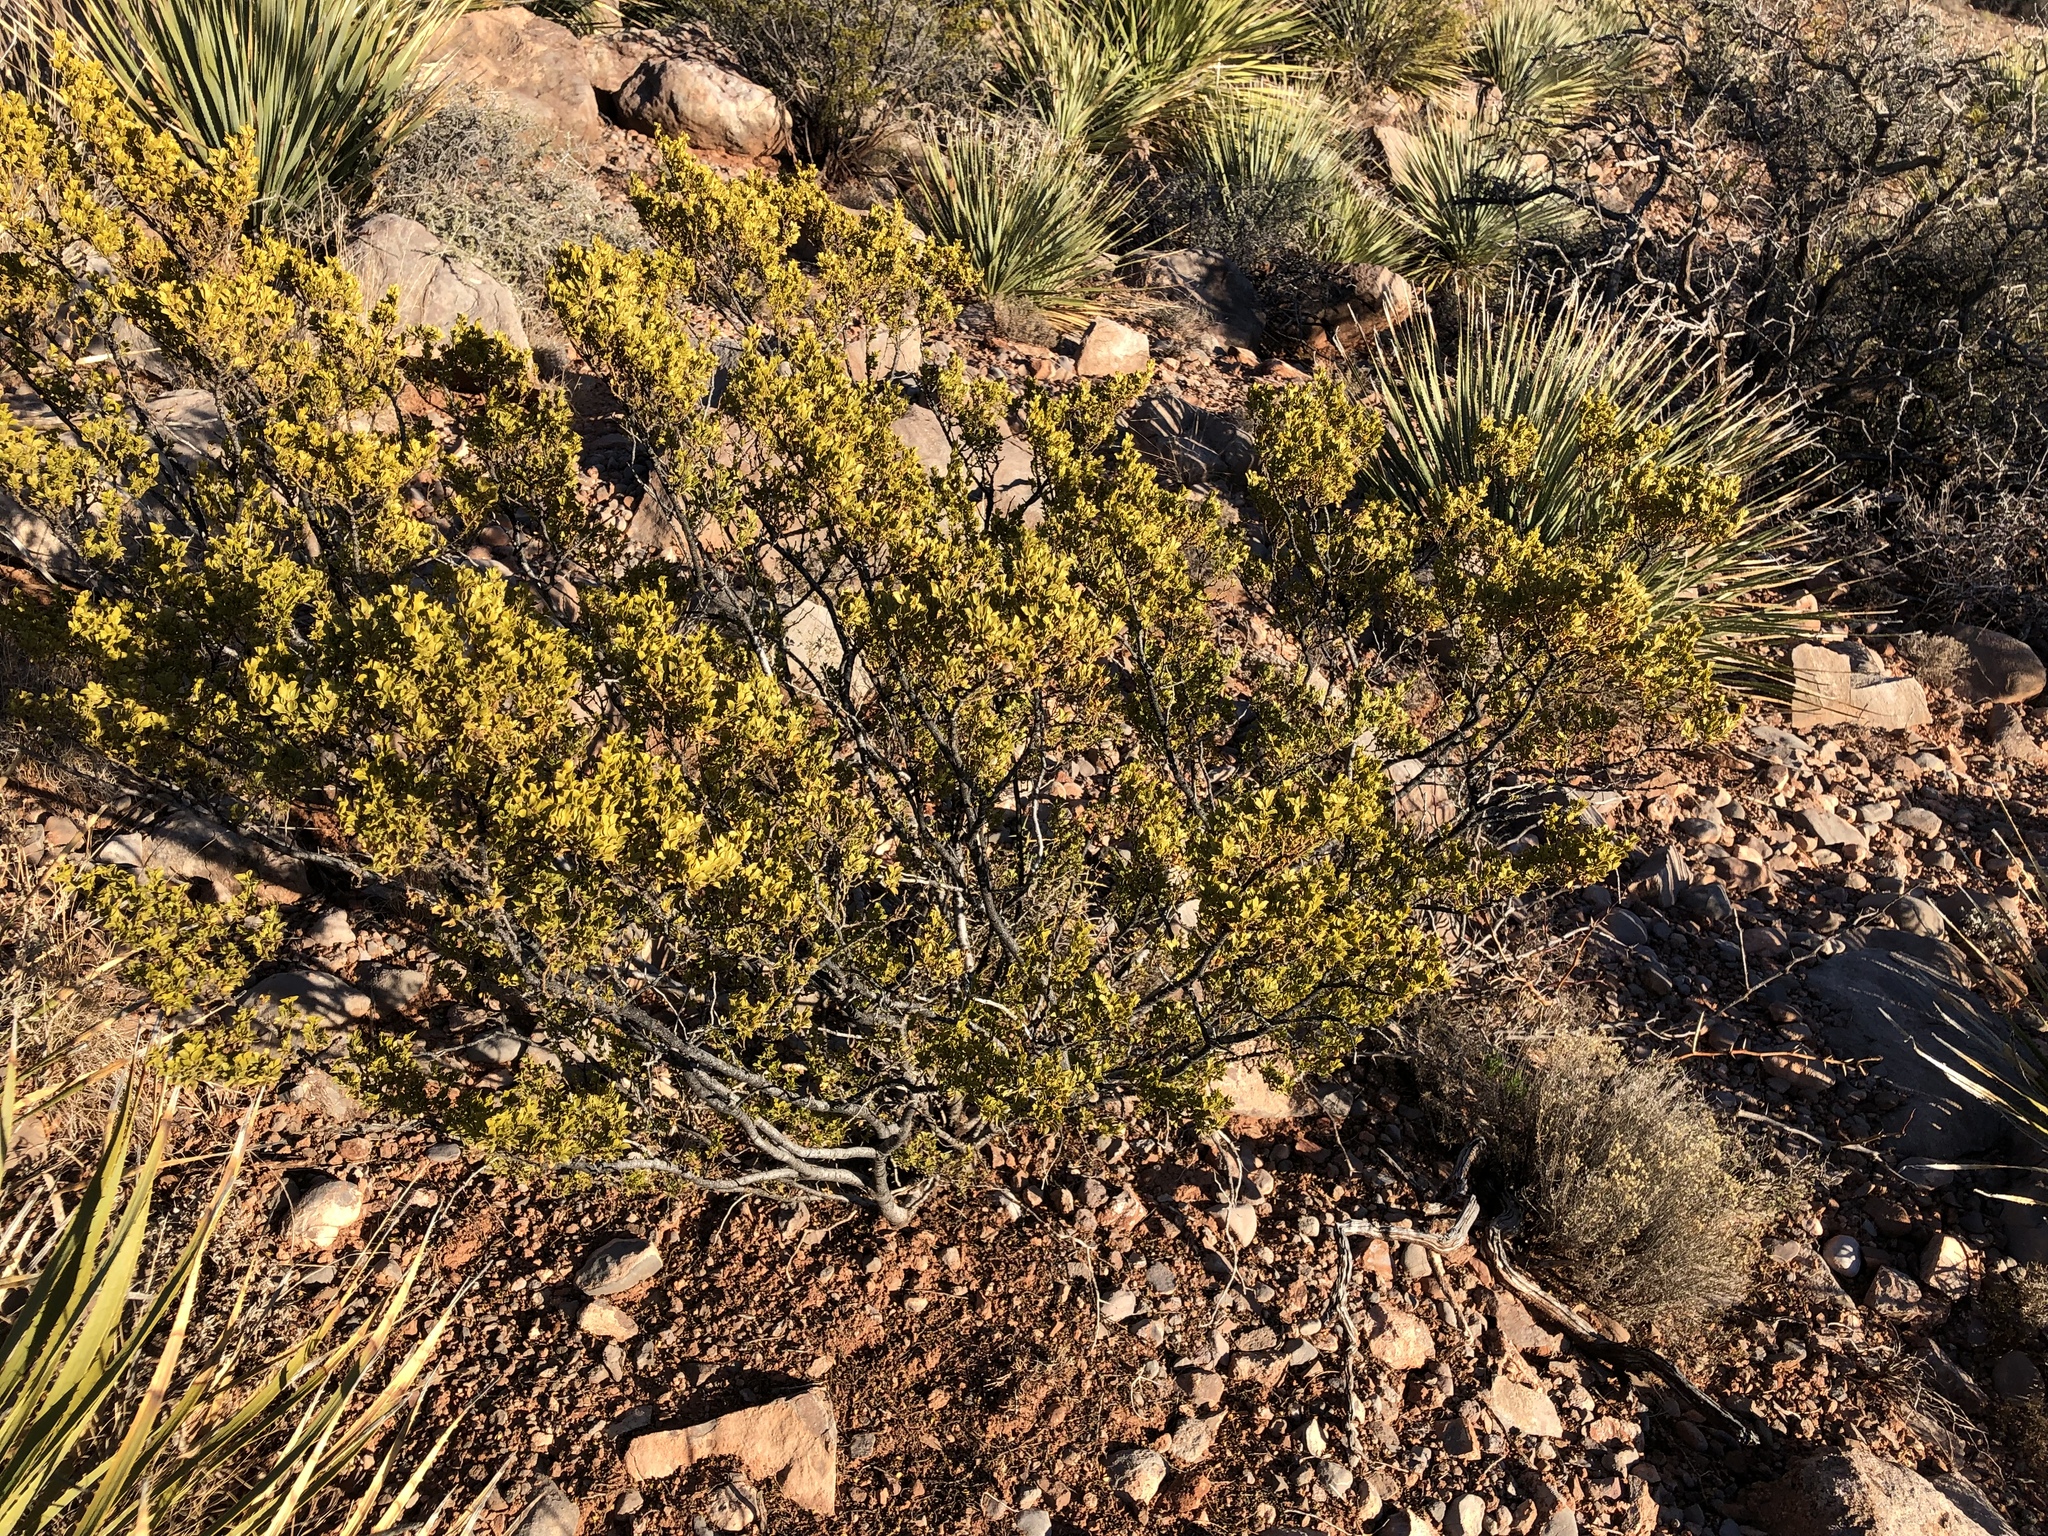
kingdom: Plantae
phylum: Tracheophyta
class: Magnoliopsida
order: Zygophyllales
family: Zygophyllaceae
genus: Larrea
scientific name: Larrea tridentata
